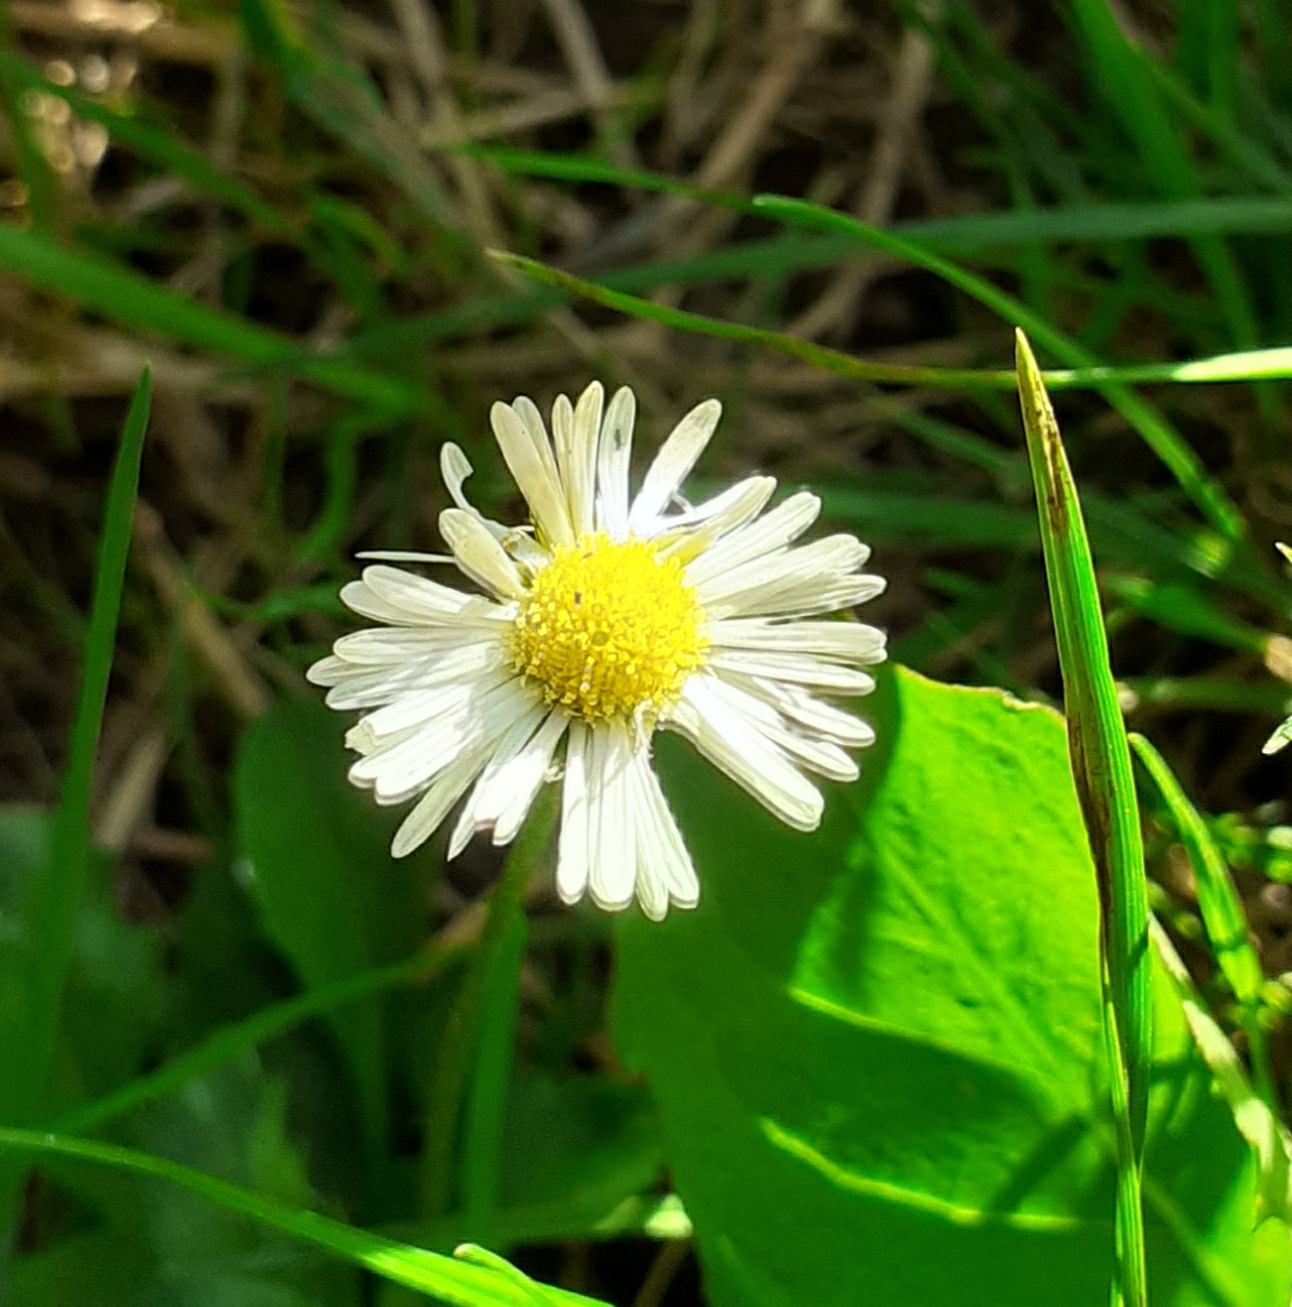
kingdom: Plantae
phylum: Tracheophyta
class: Magnoliopsida
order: Asterales
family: Asteraceae
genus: Bellis
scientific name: Bellis perennis
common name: Lawndaisy
